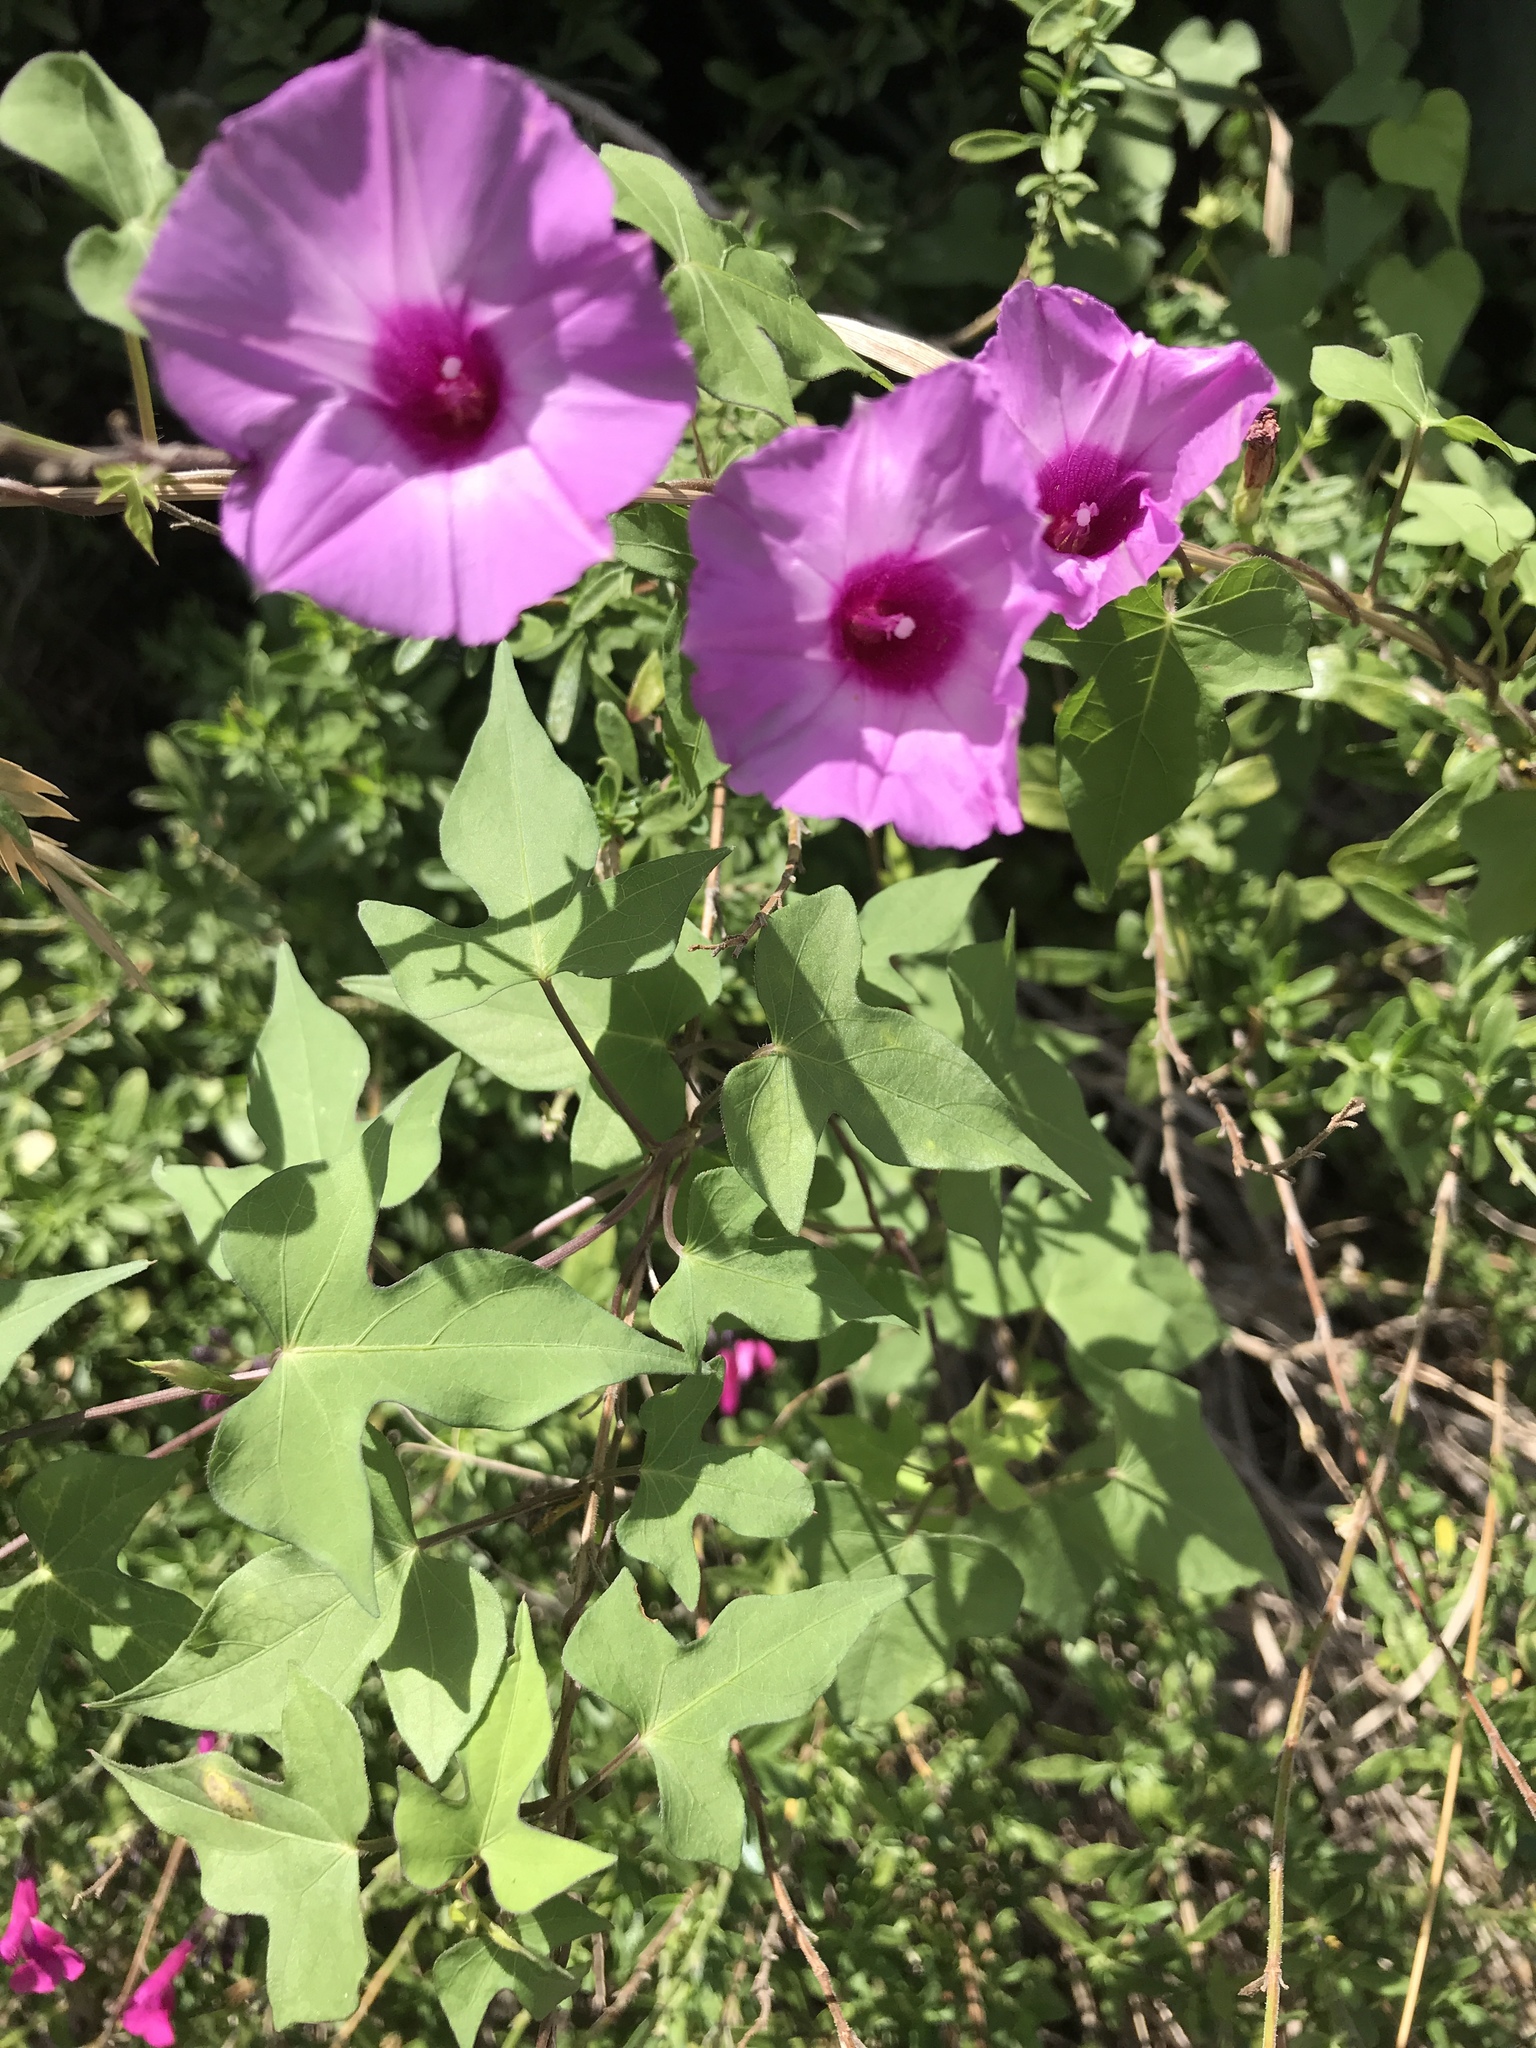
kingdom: Plantae
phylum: Tracheophyta
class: Magnoliopsida
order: Solanales
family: Convolvulaceae
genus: Ipomoea
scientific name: Ipomoea cordatotriloba
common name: Cotton morning glory
